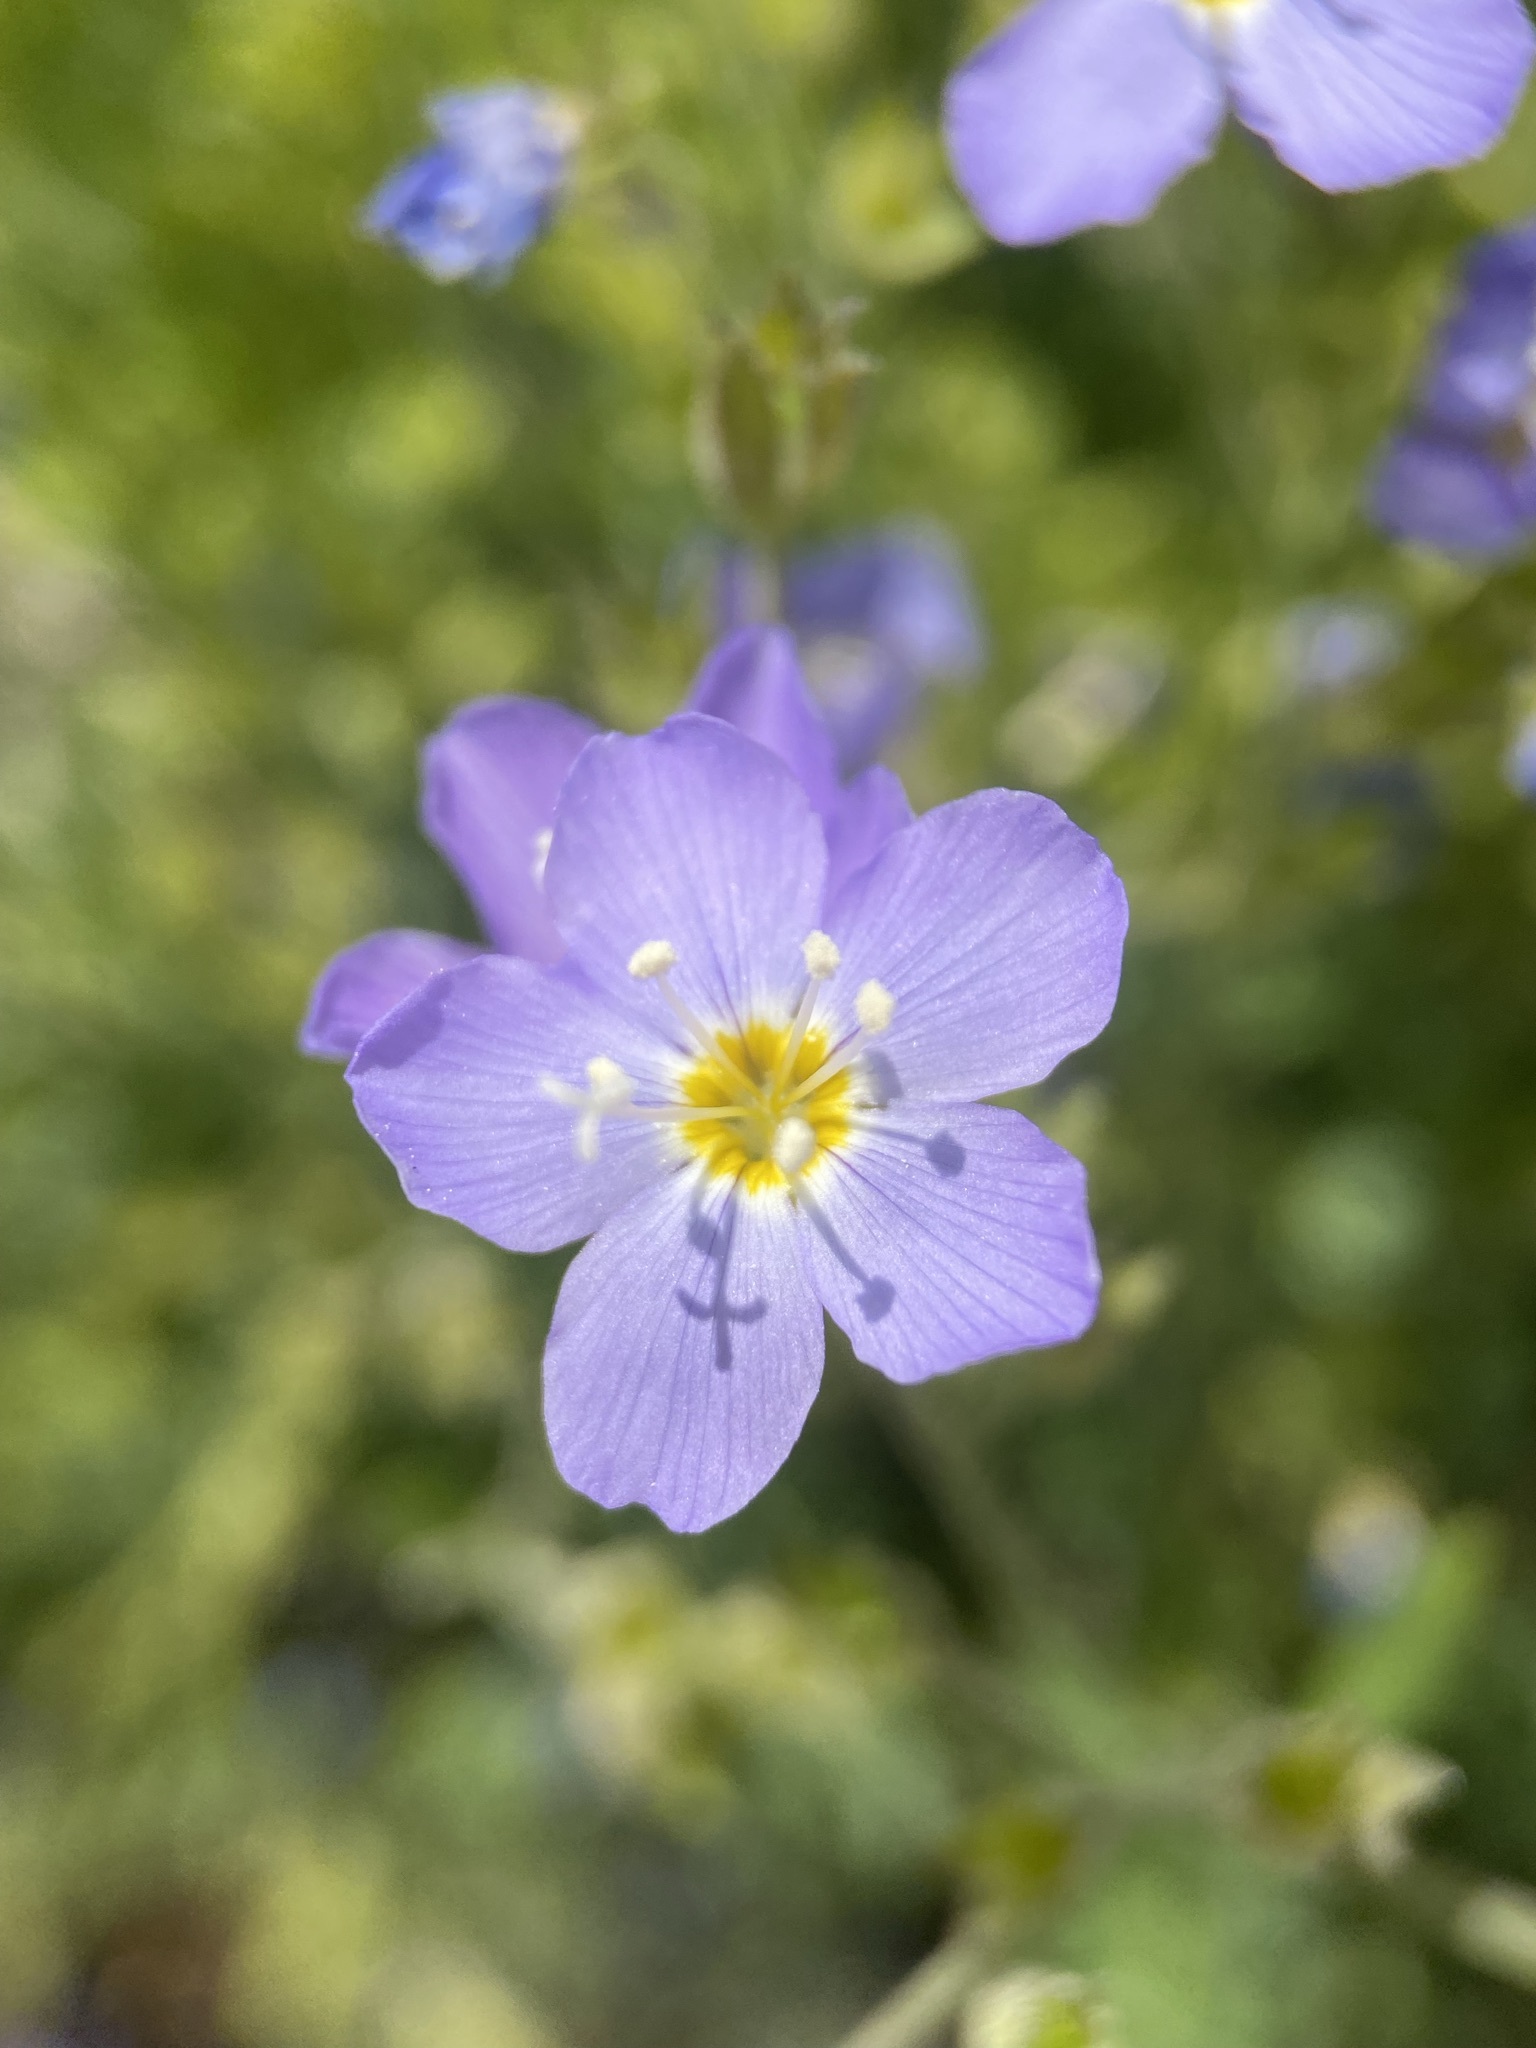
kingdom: Plantae
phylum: Tracheophyta
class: Magnoliopsida
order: Ericales
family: Polemoniaceae
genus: Polemonium
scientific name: Polemonium pulcherrimum
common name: Short jacob's-ladder
